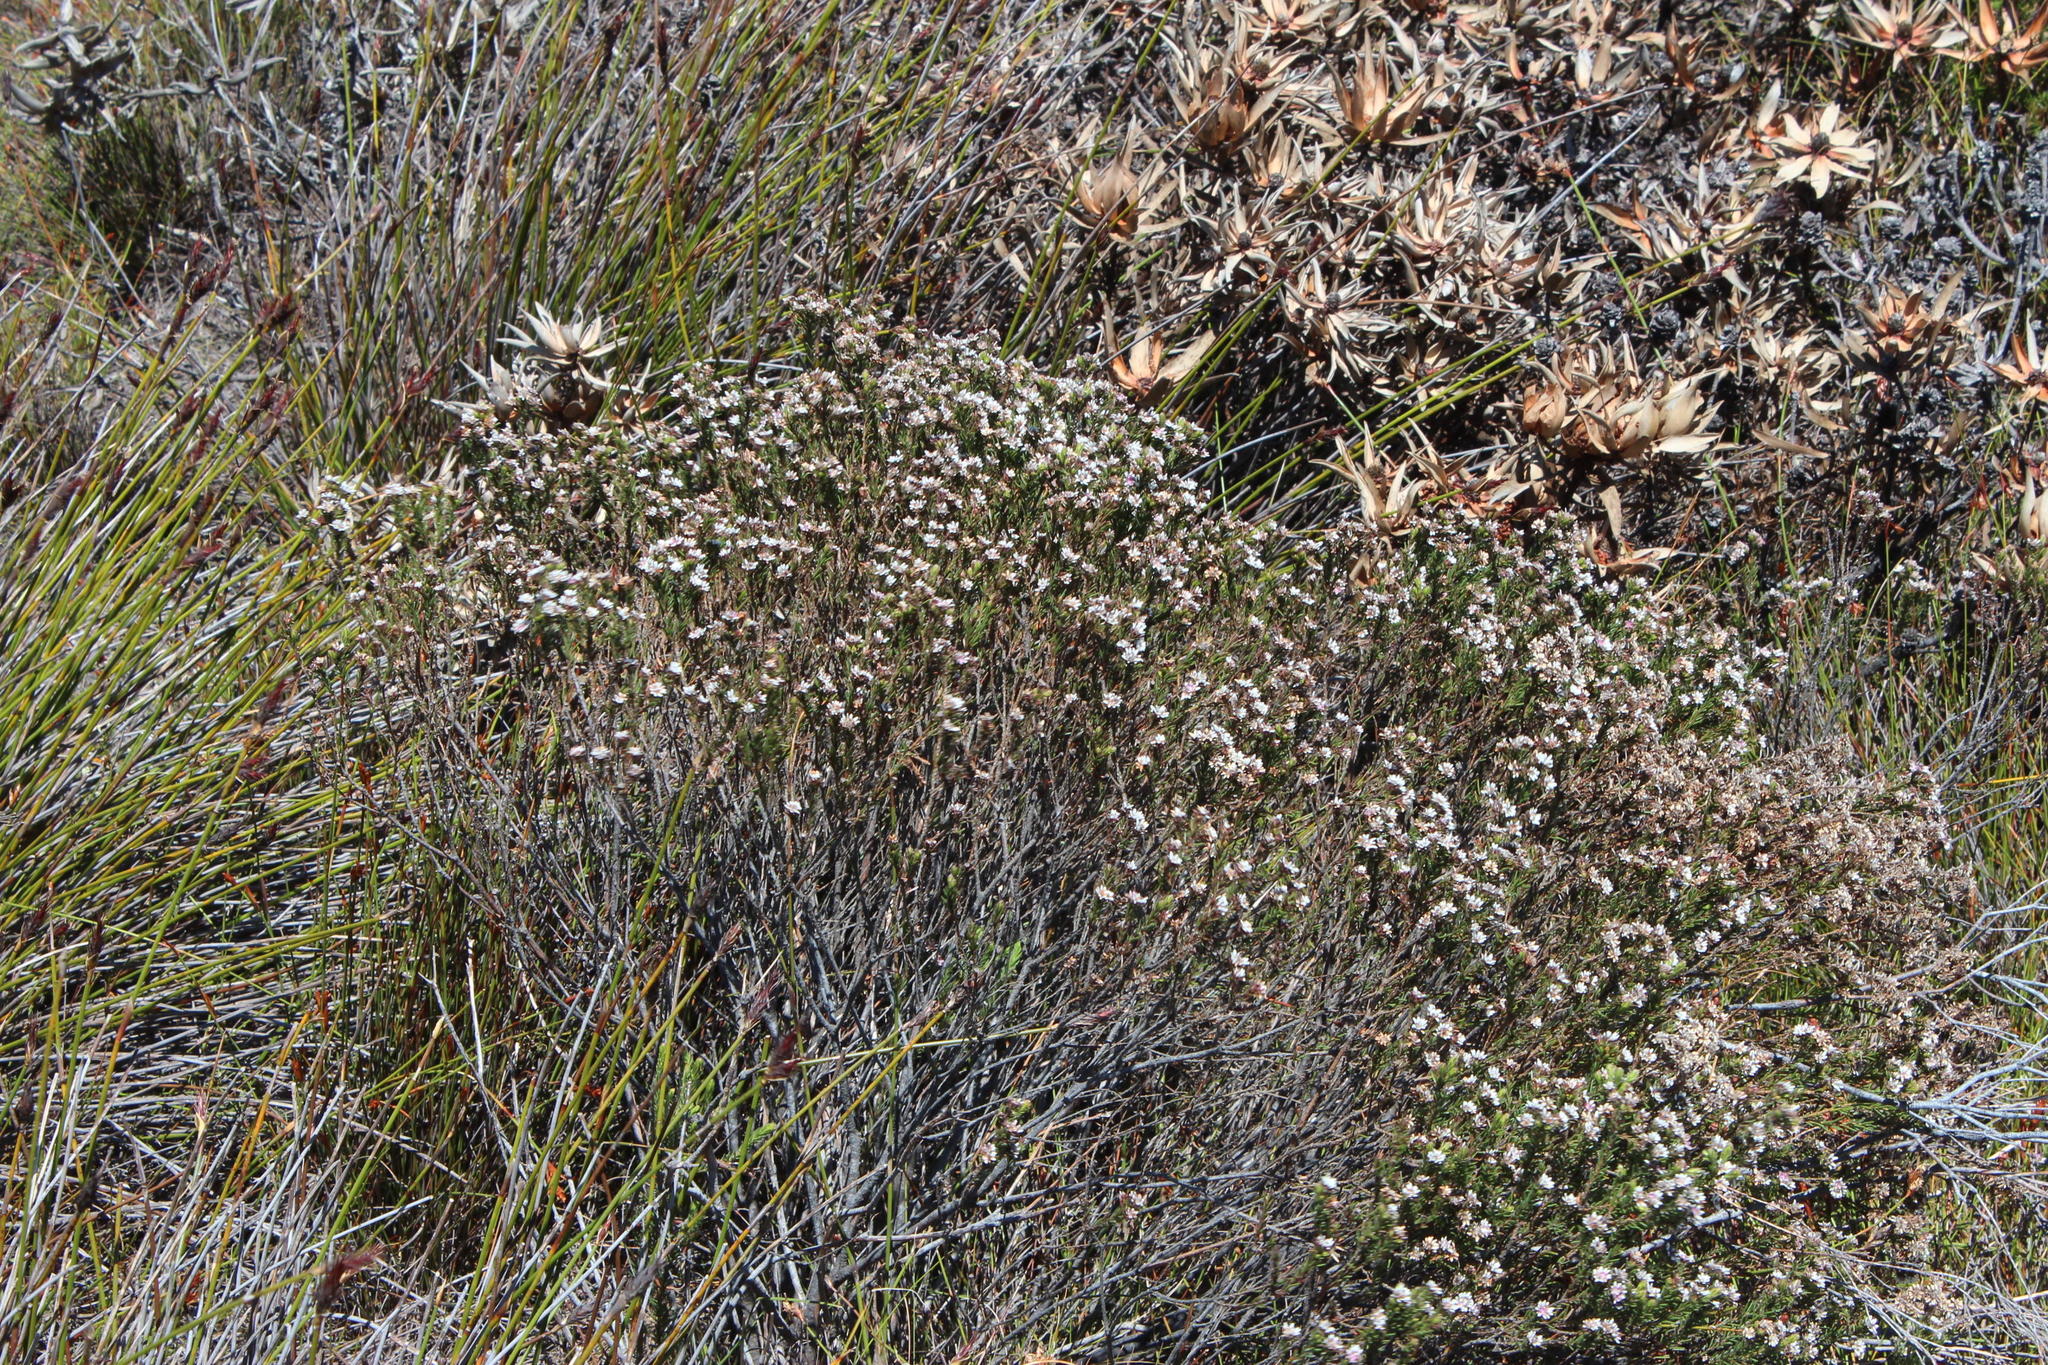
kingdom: Plantae
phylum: Tracheophyta
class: Magnoliopsida
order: Bruniales
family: Bruniaceae
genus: Staavia
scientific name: Staavia radiata
